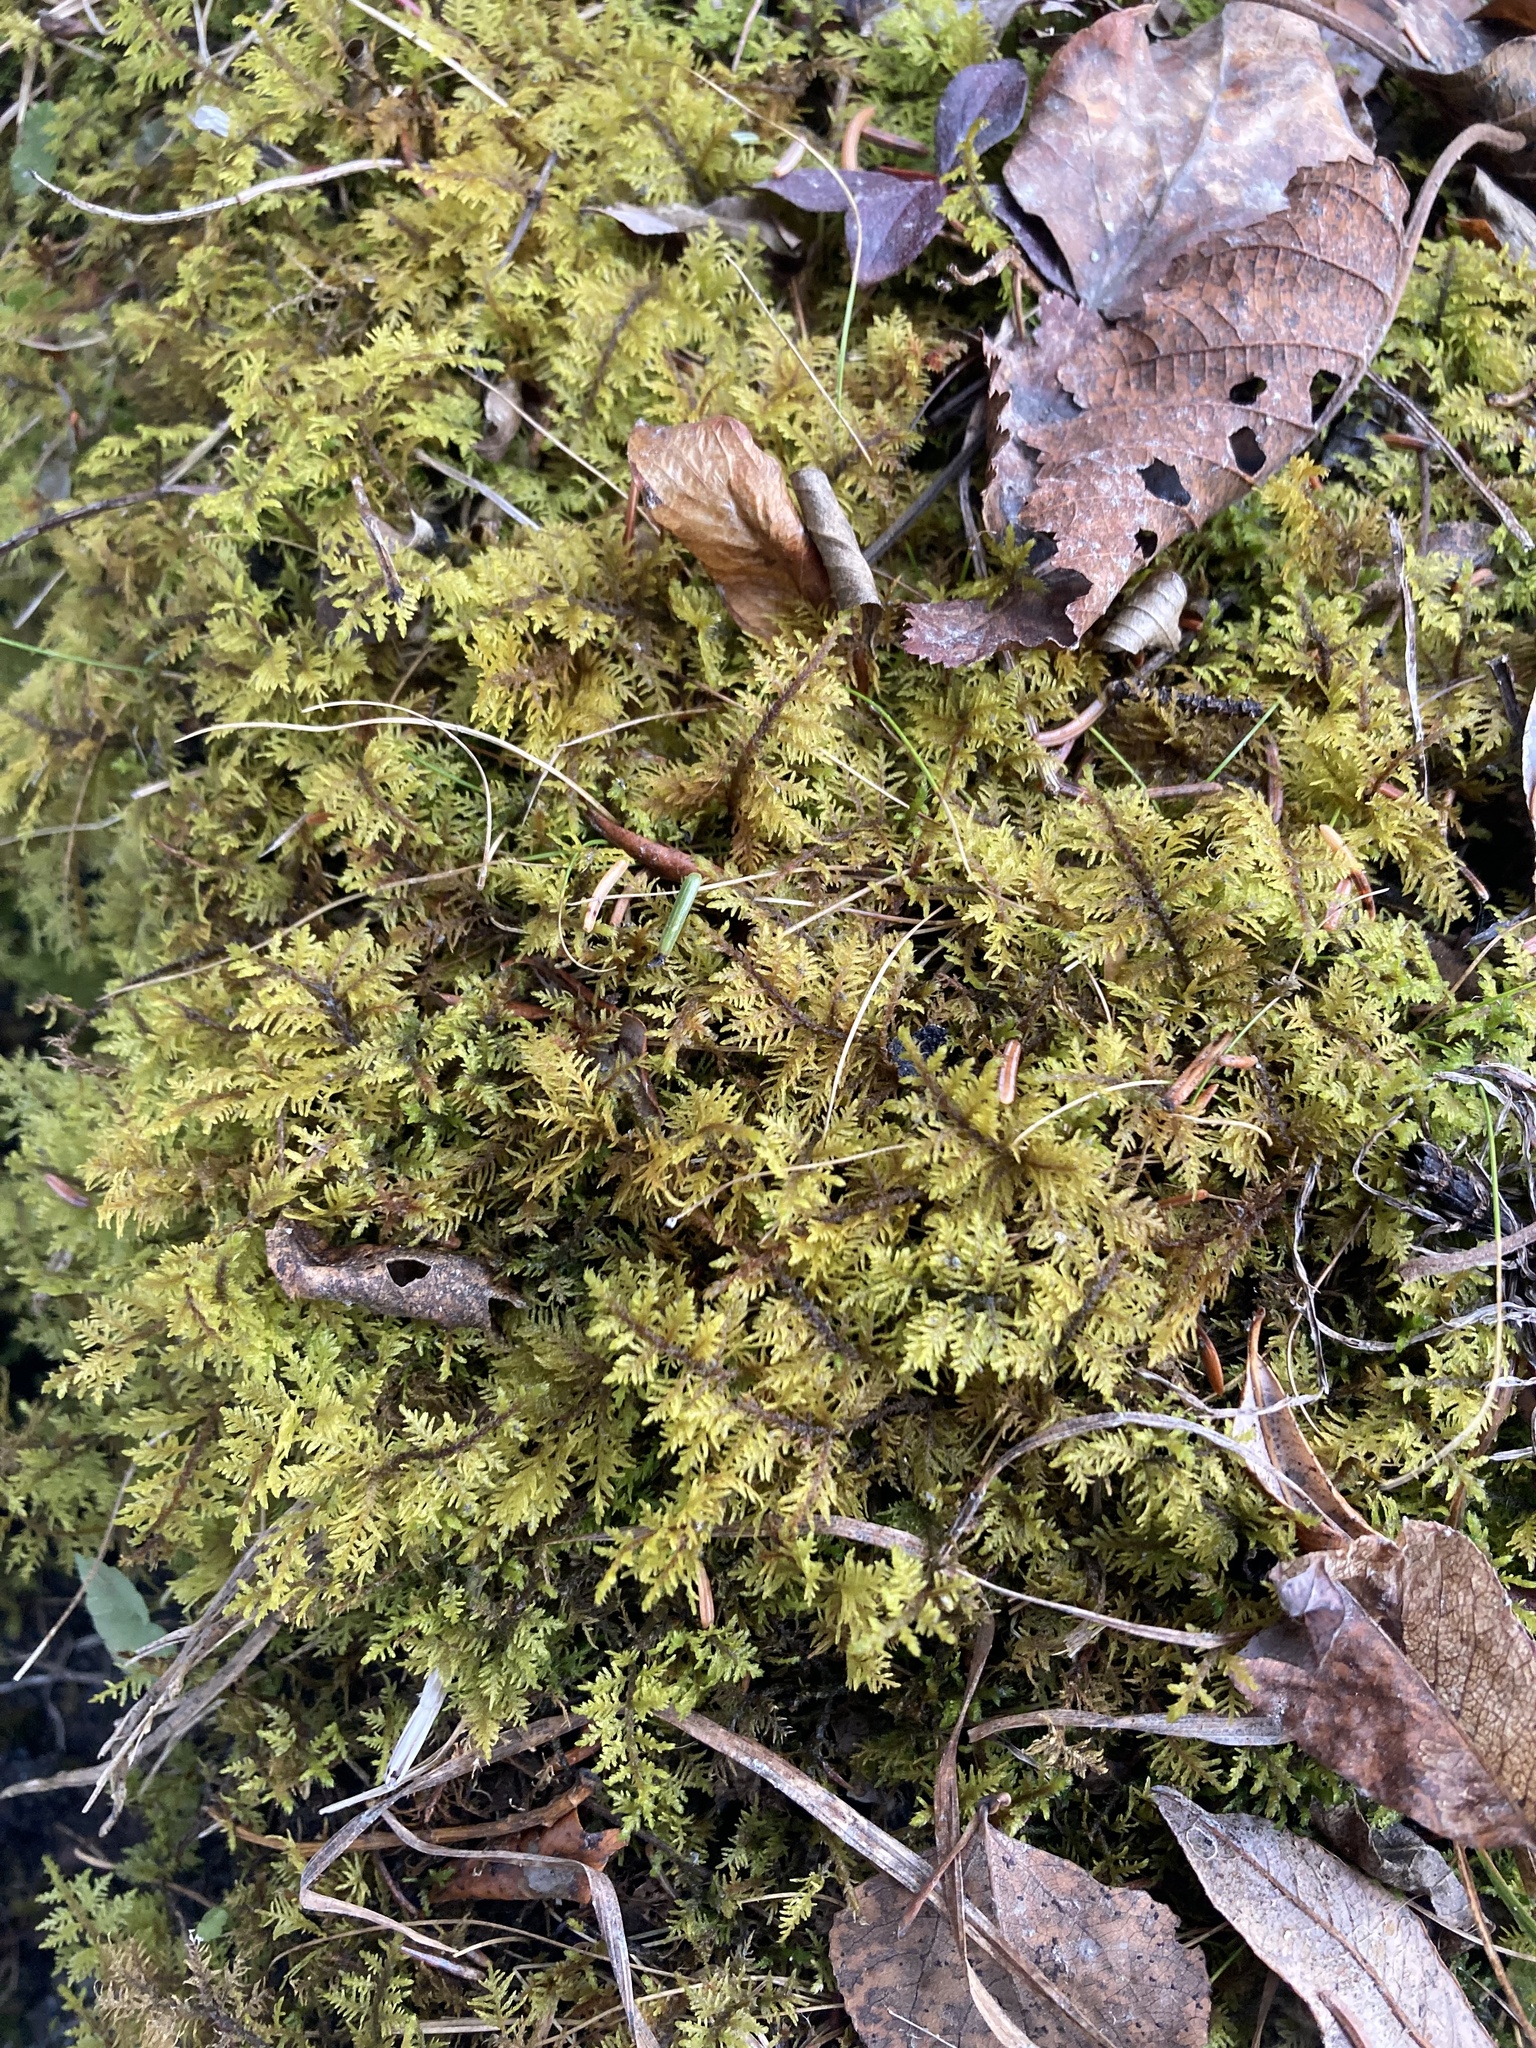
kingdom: Plantae
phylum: Bryophyta
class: Bryopsida
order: Hypnales
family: Hylocomiaceae
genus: Hylocomium
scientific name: Hylocomium splendens
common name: Stairstep moss
